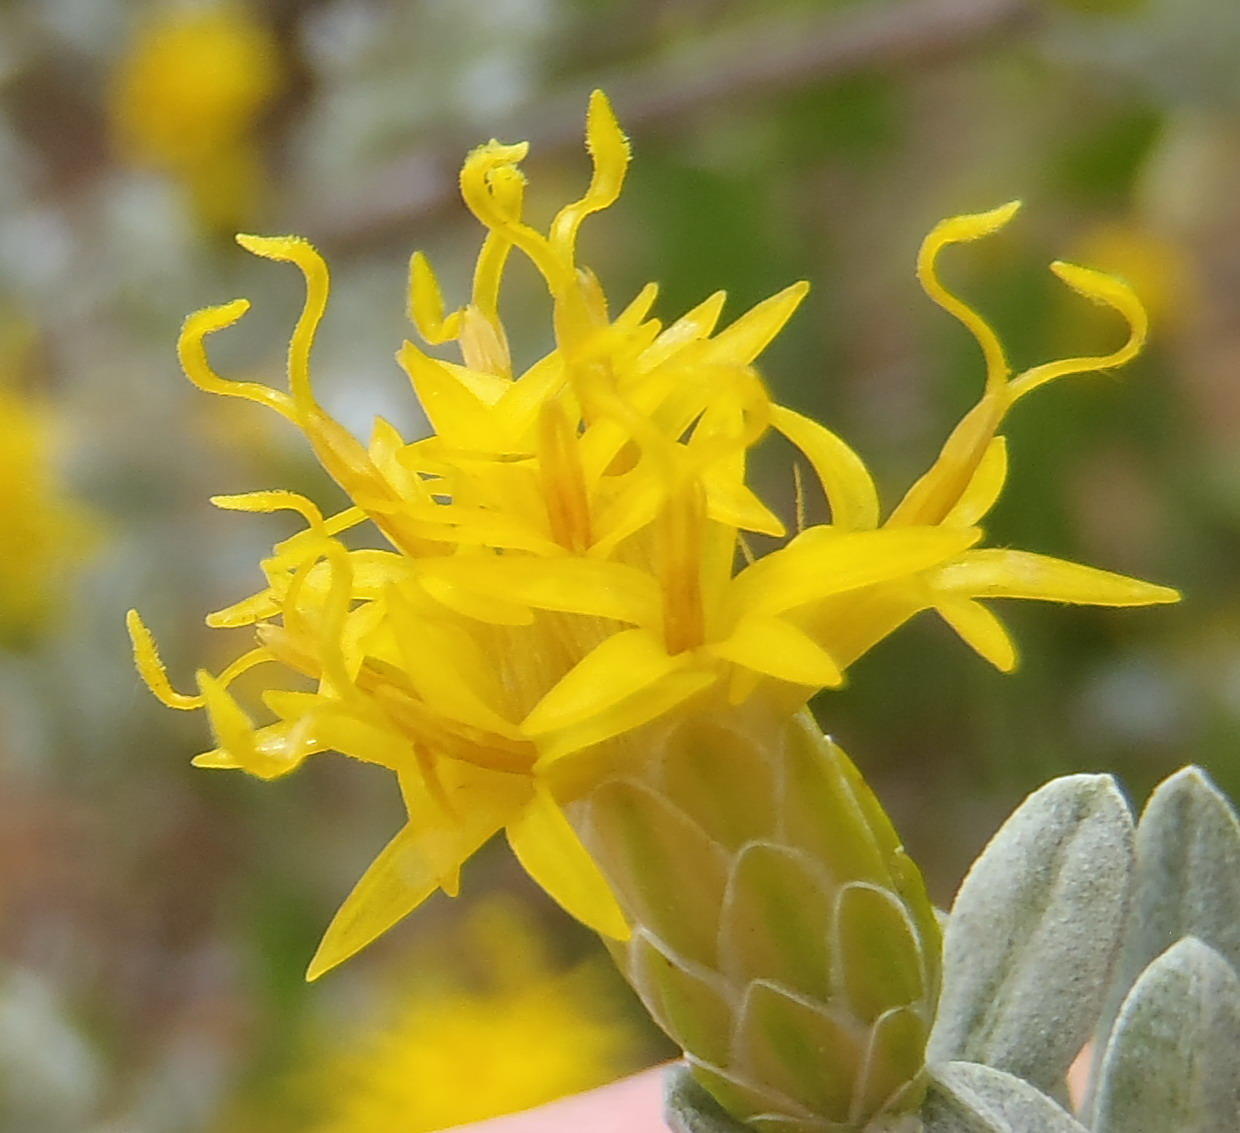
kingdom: Plantae
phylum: Tracheophyta
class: Magnoliopsida
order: Asterales
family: Asteraceae
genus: Pteronia
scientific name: Pteronia incana
